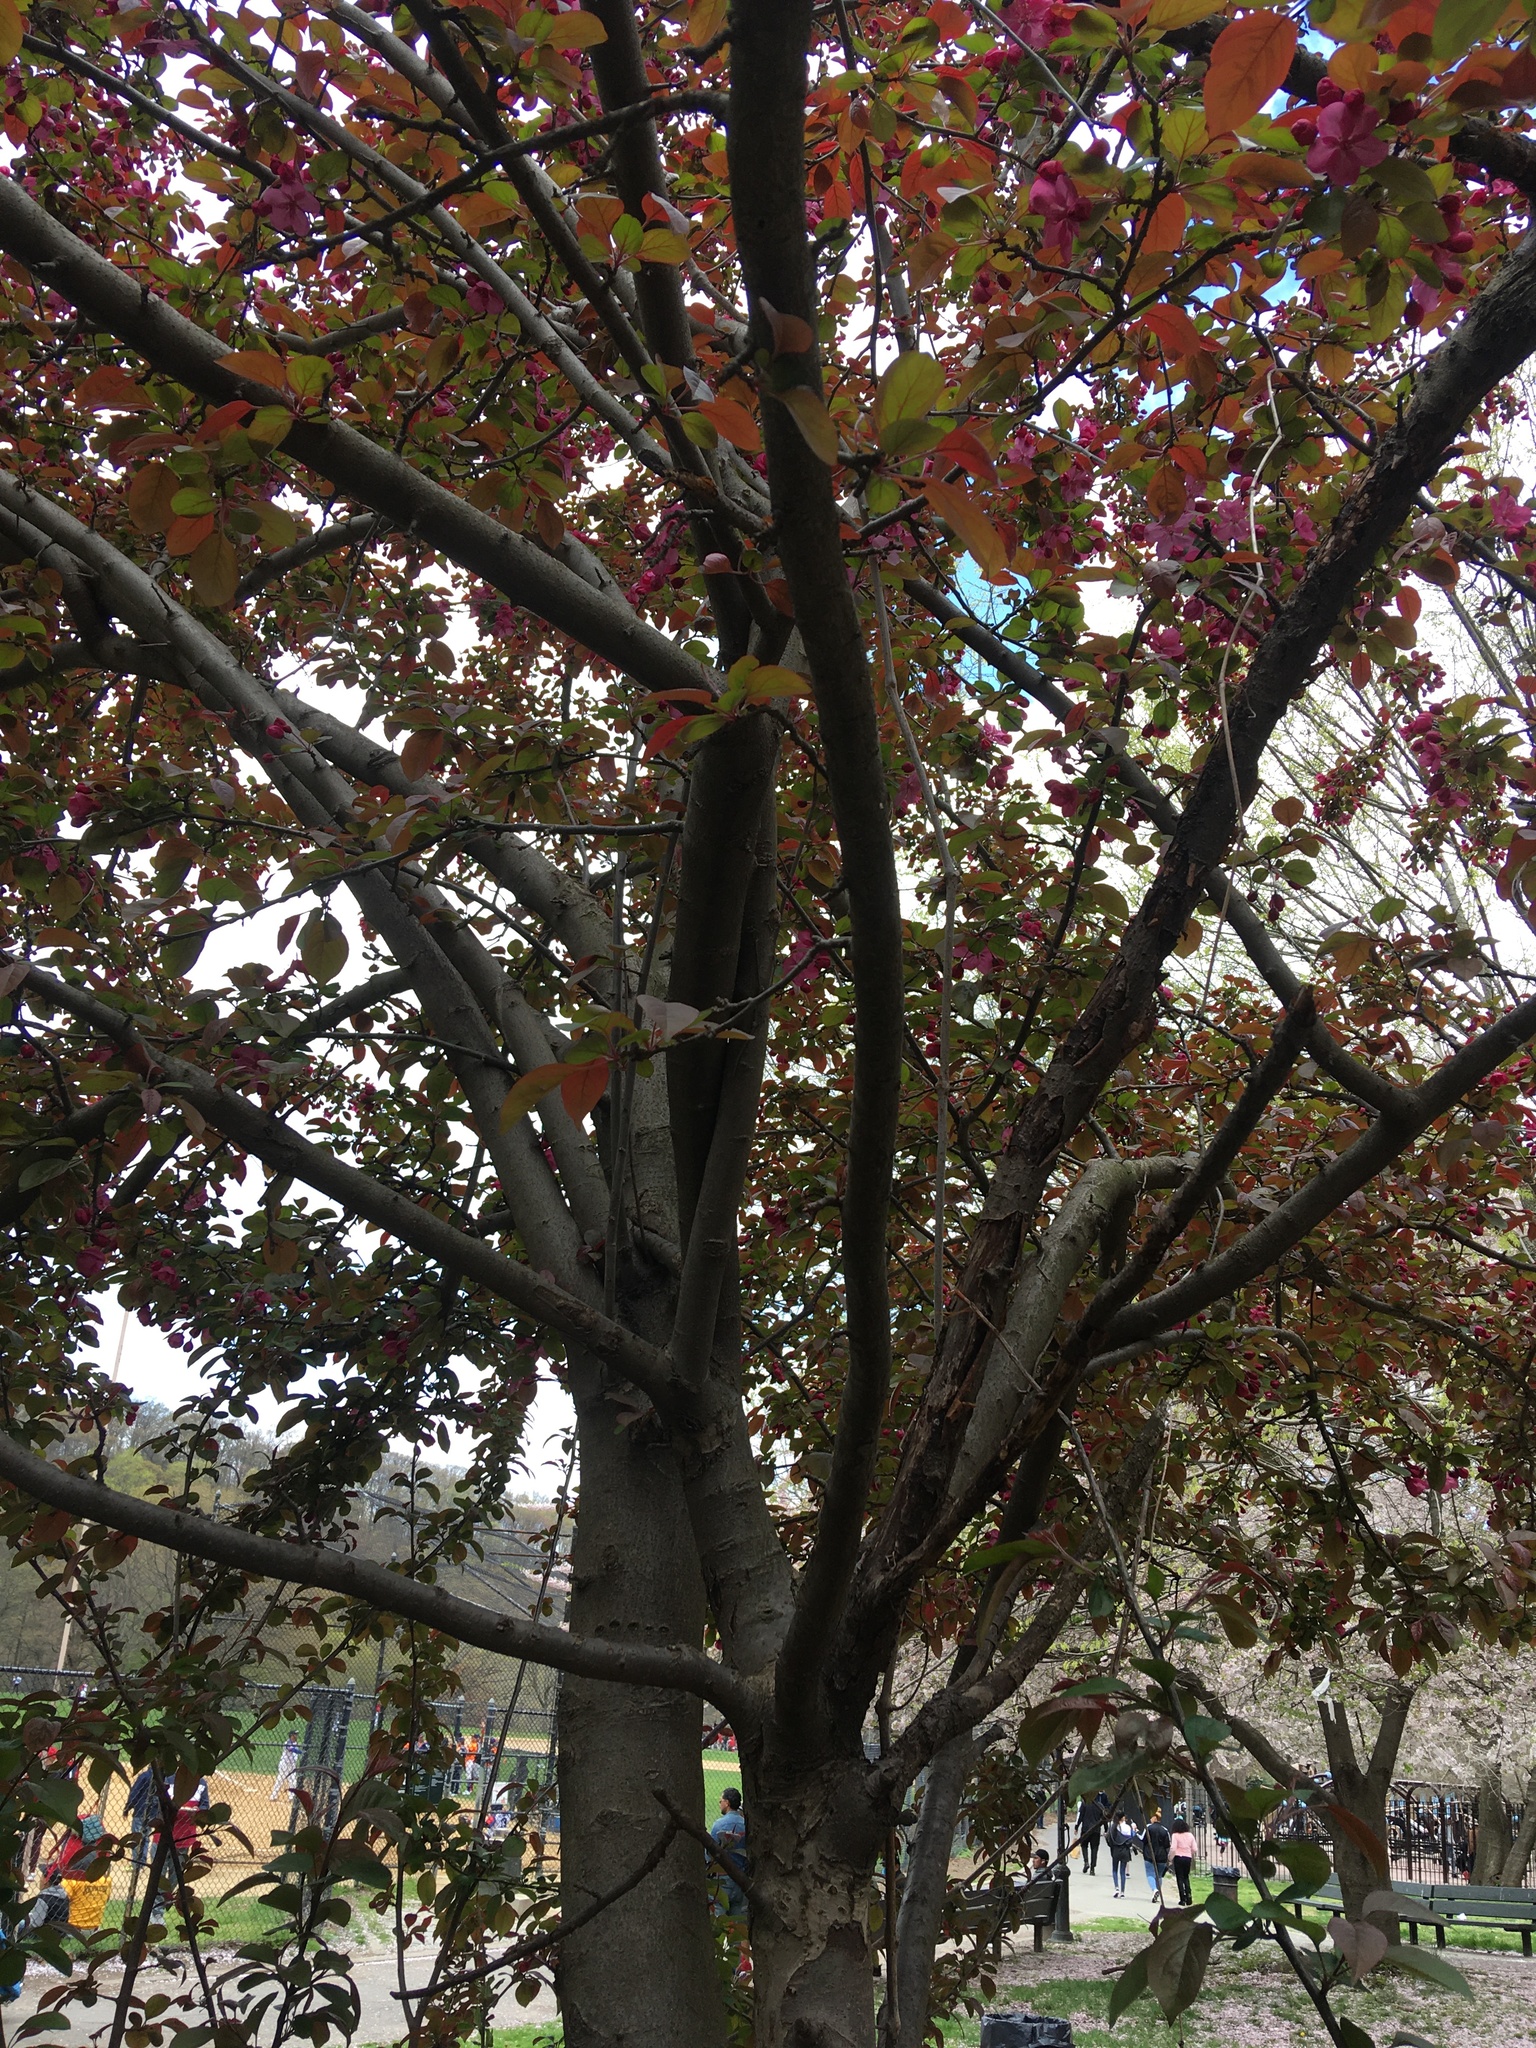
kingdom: Plantae
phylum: Tracheophyta
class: Magnoliopsida
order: Rosales
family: Rosaceae
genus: Malus
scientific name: Malus hupehensis
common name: Chinese crab apple
